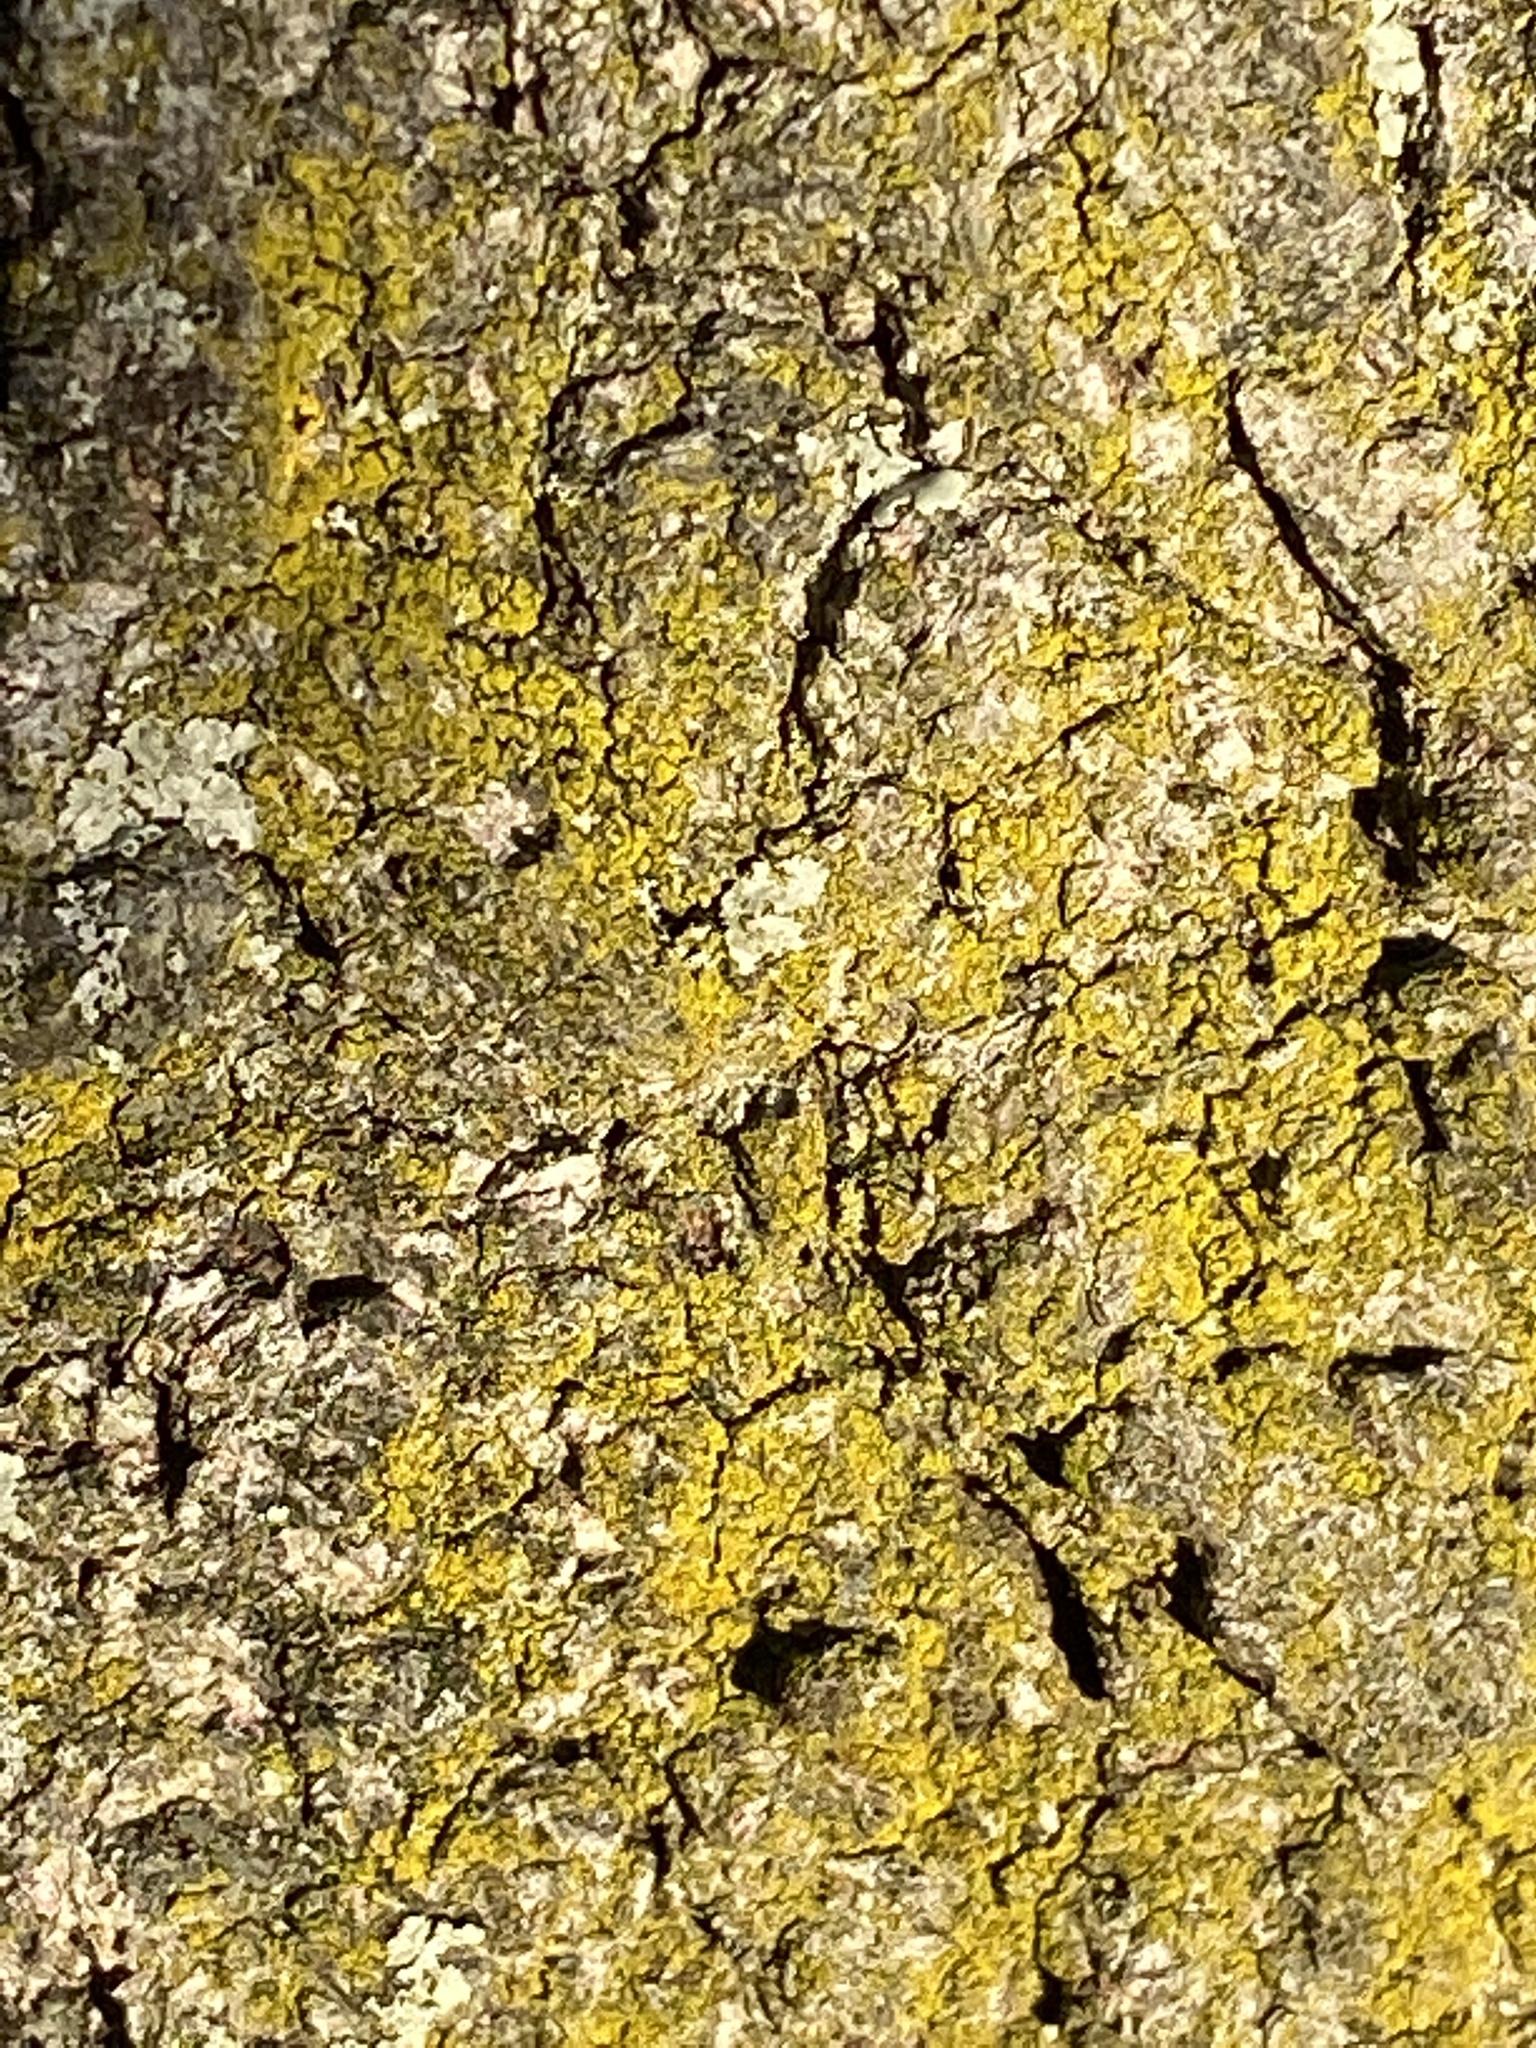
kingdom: Fungi
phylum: Ascomycota
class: Candelariomycetes
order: Candelariales
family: Candelariaceae
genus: Candelaria
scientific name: Candelaria concolor
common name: Candleflame lichen
